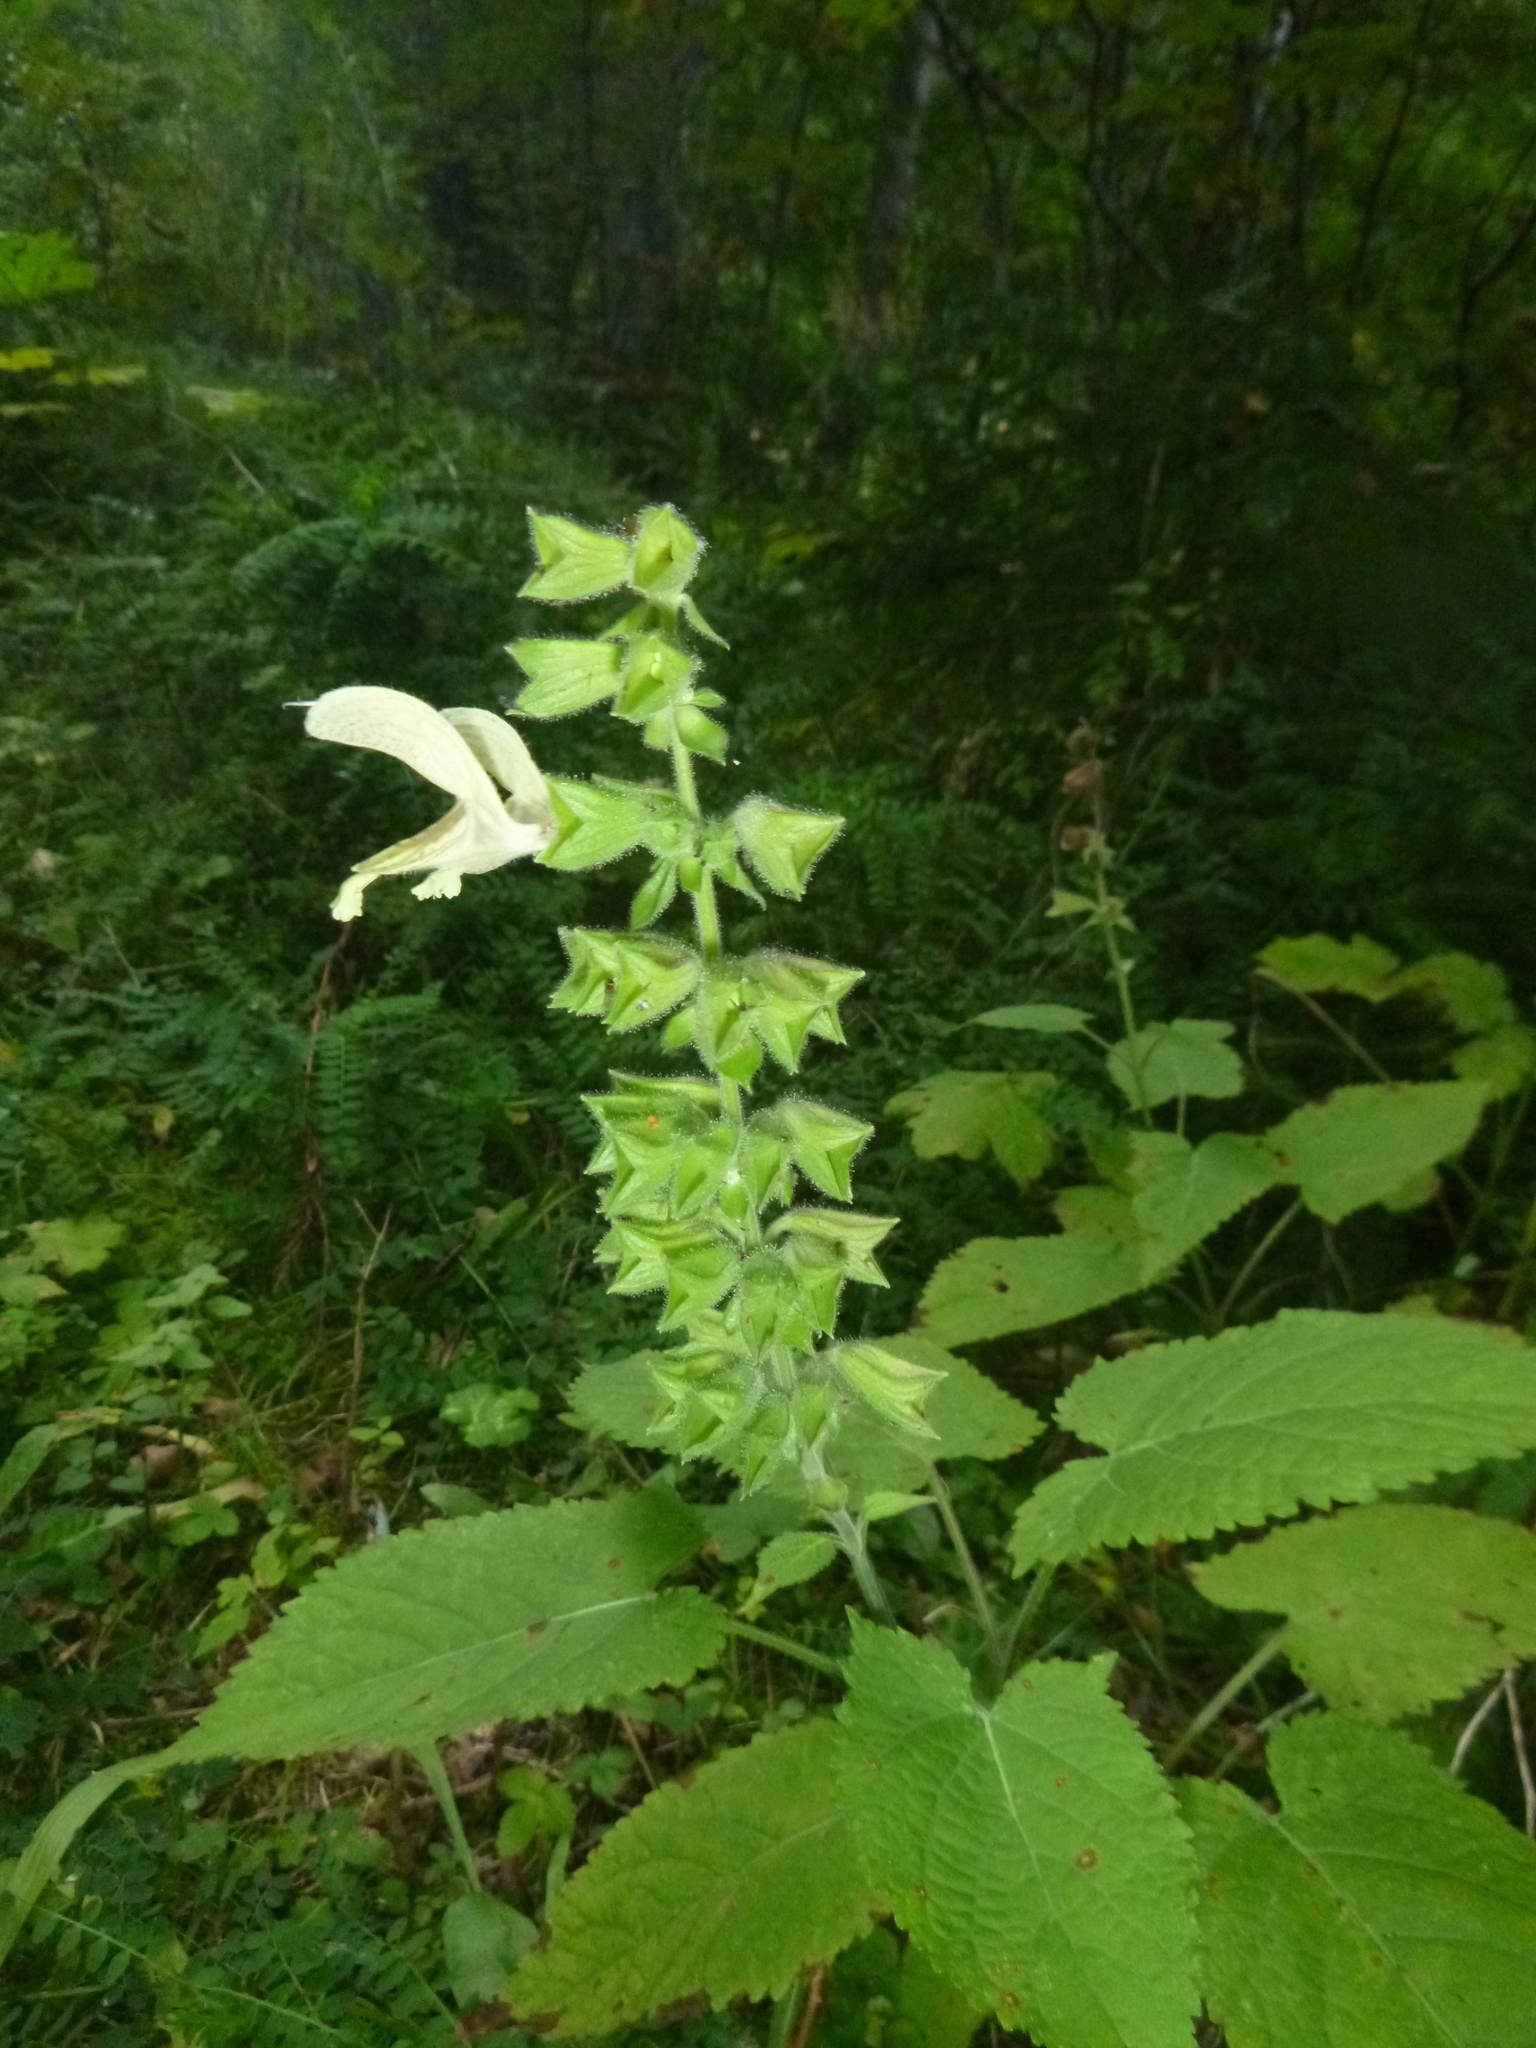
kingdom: Plantae
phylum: Tracheophyta
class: Magnoliopsida
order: Lamiales
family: Lamiaceae
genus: Salvia
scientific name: Salvia glutinosa
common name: Sticky clary
